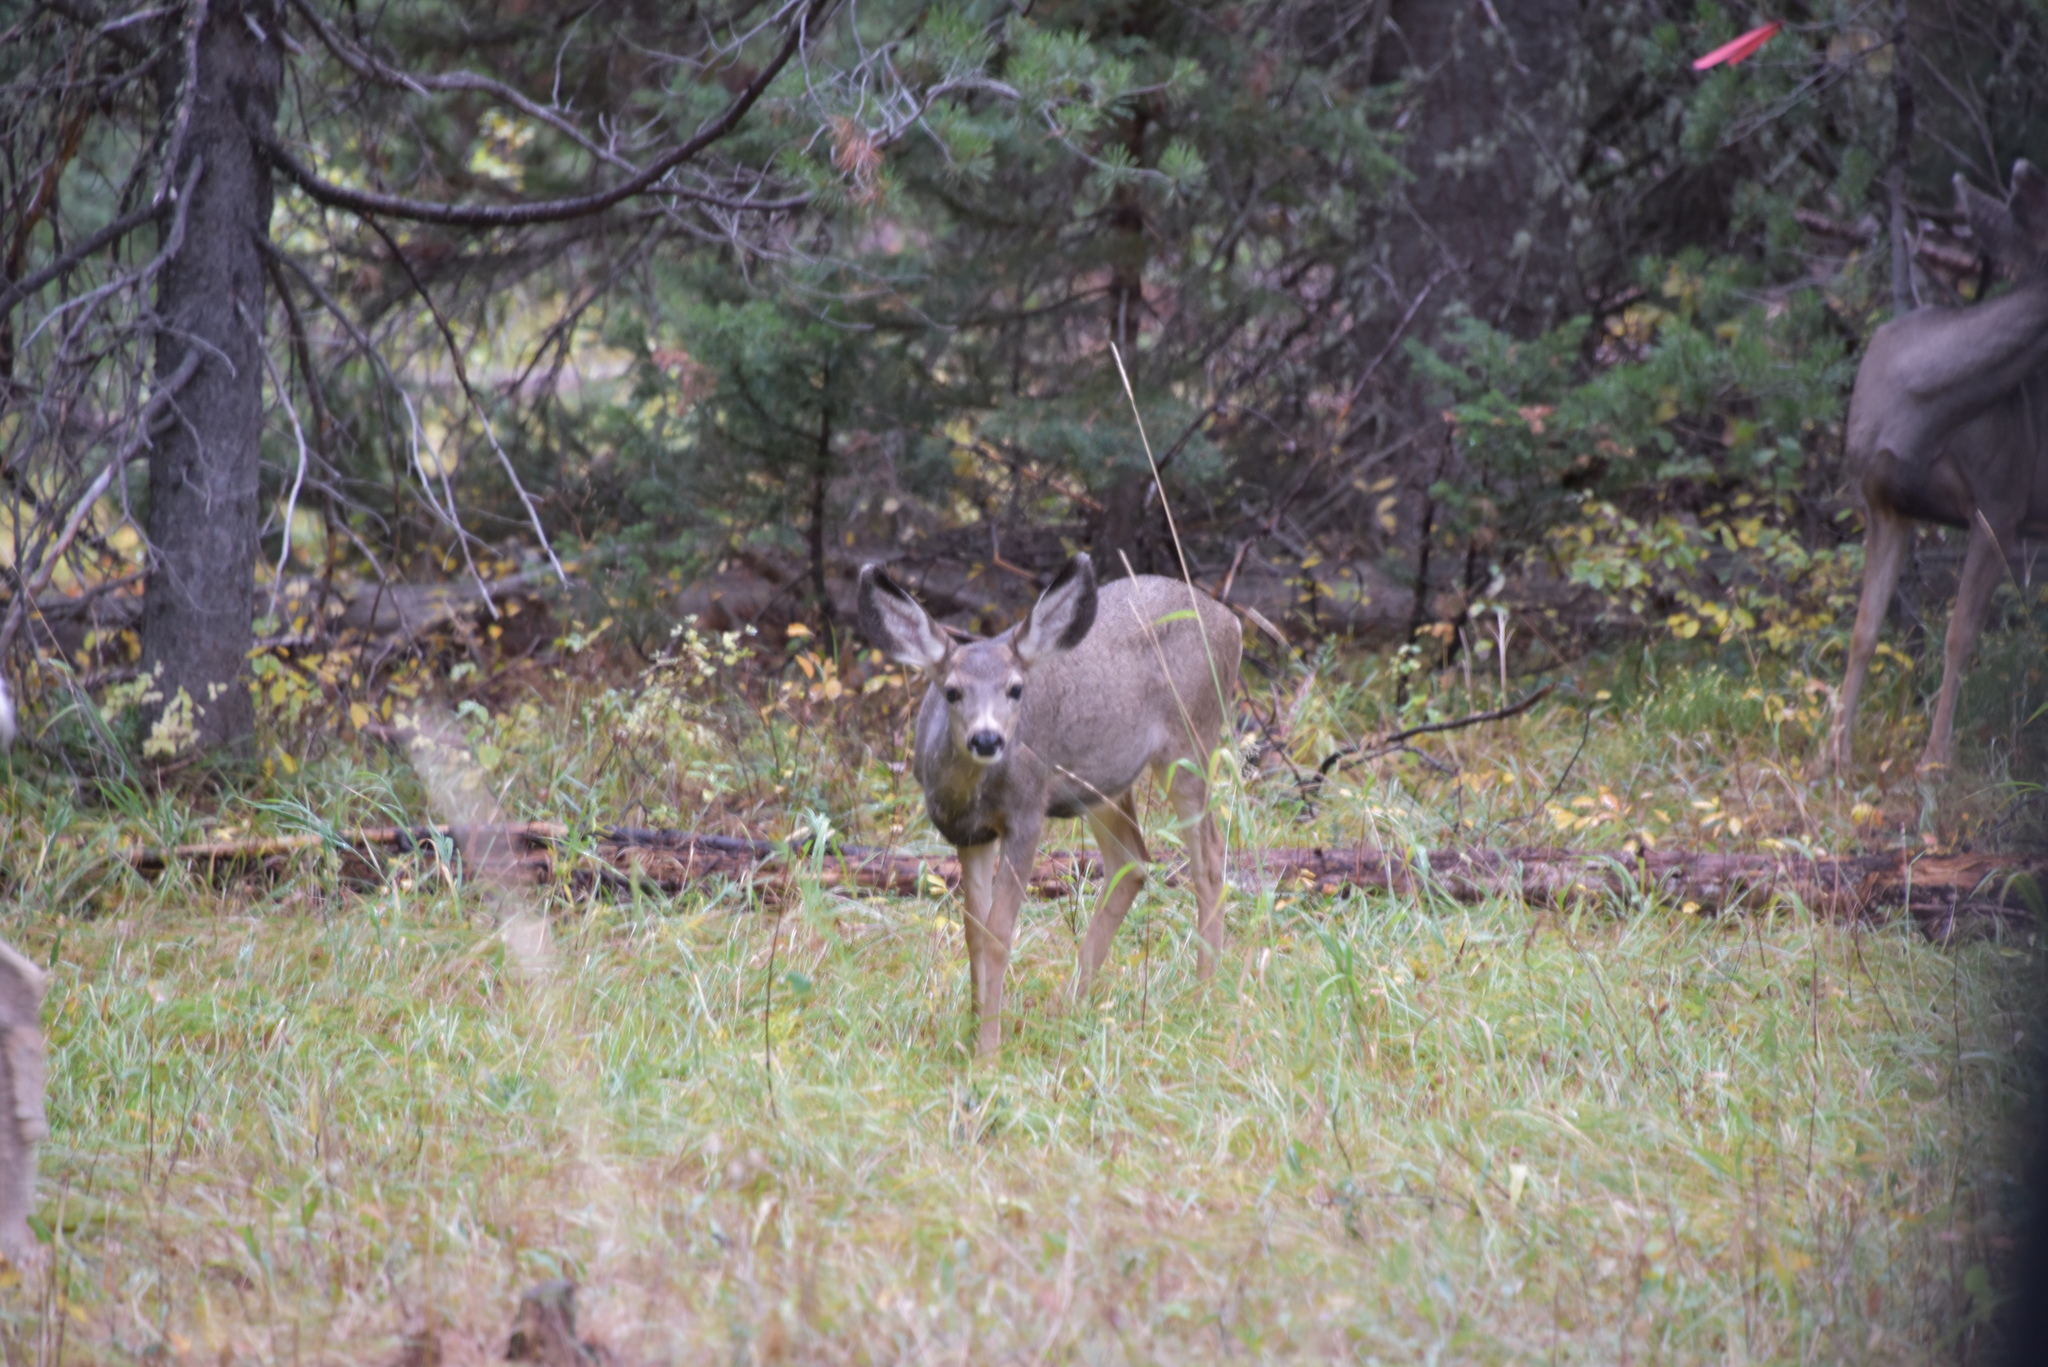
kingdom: Animalia
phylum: Chordata
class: Mammalia
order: Artiodactyla
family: Cervidae
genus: Odocoileus
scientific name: Odocoileus hemionus
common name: Mule deer
